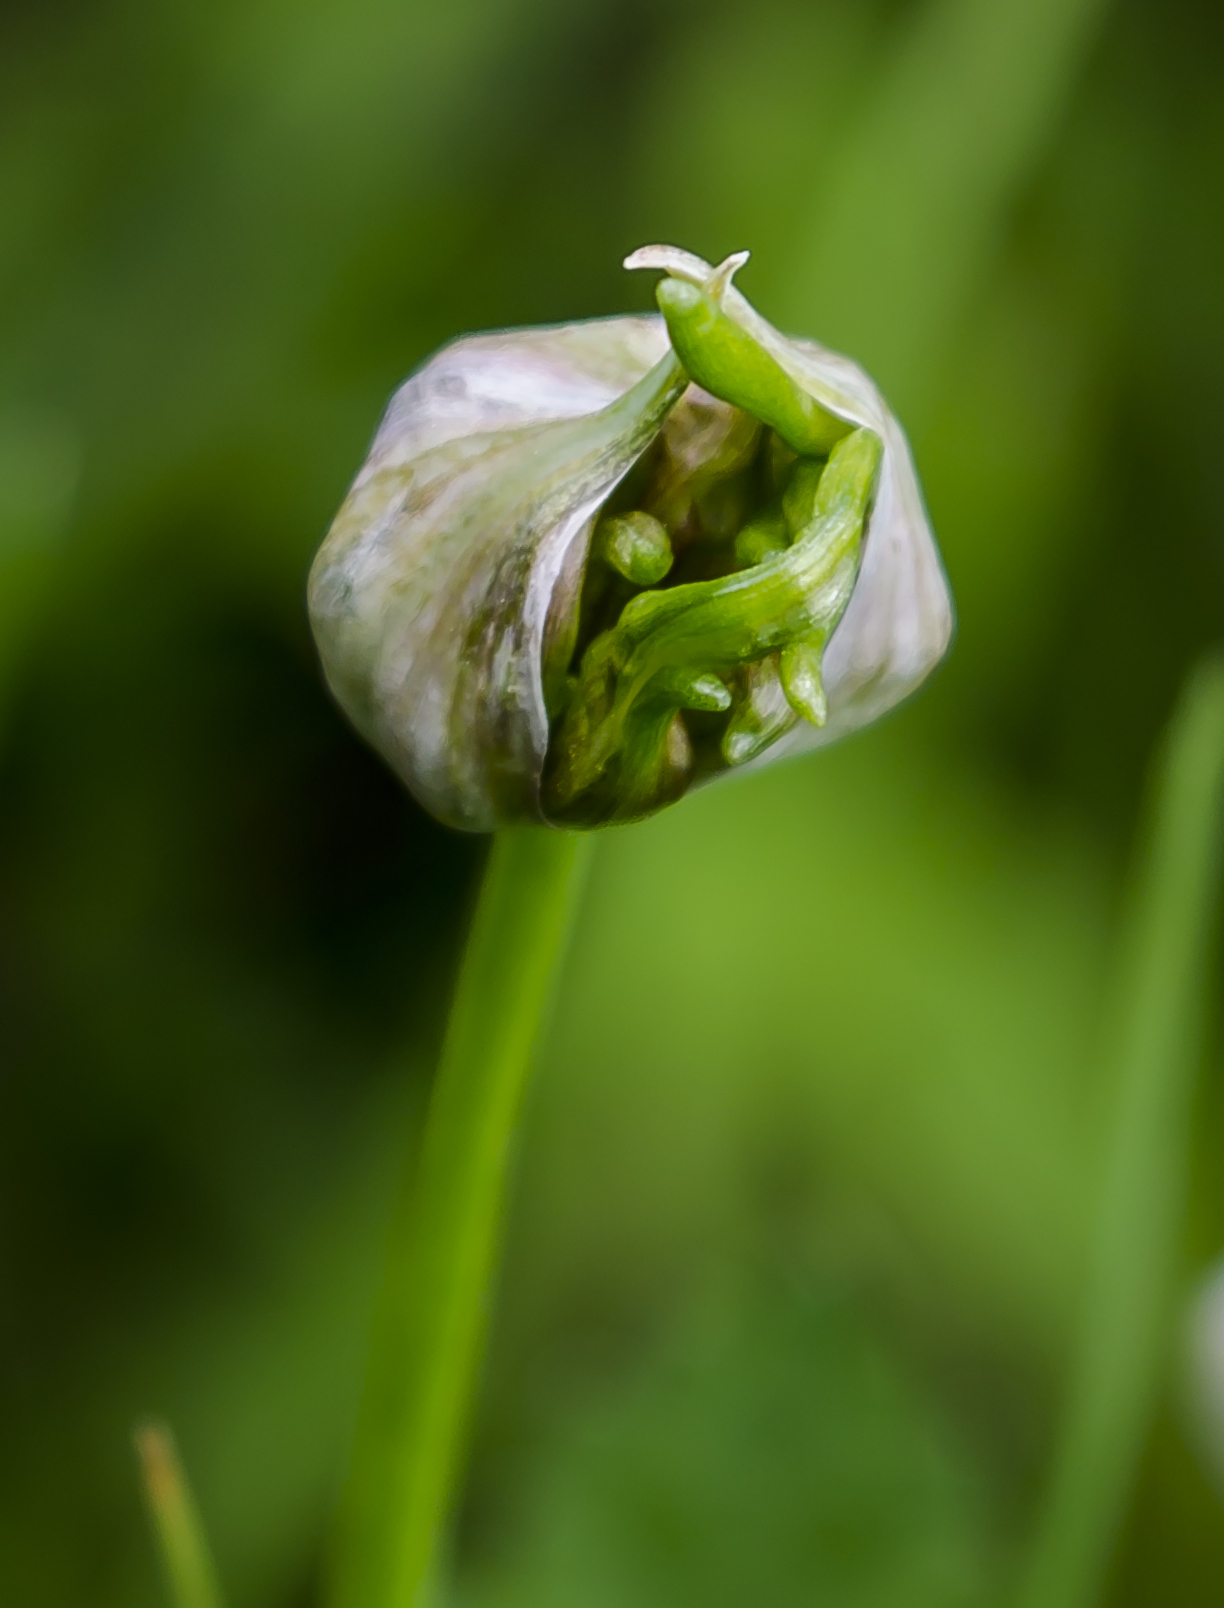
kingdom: Plantae
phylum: Tracheophyta
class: Liliopsida
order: Asparagales
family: Amaryllidaceae
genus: Allium
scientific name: Allium canadense
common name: Meadow garlic
